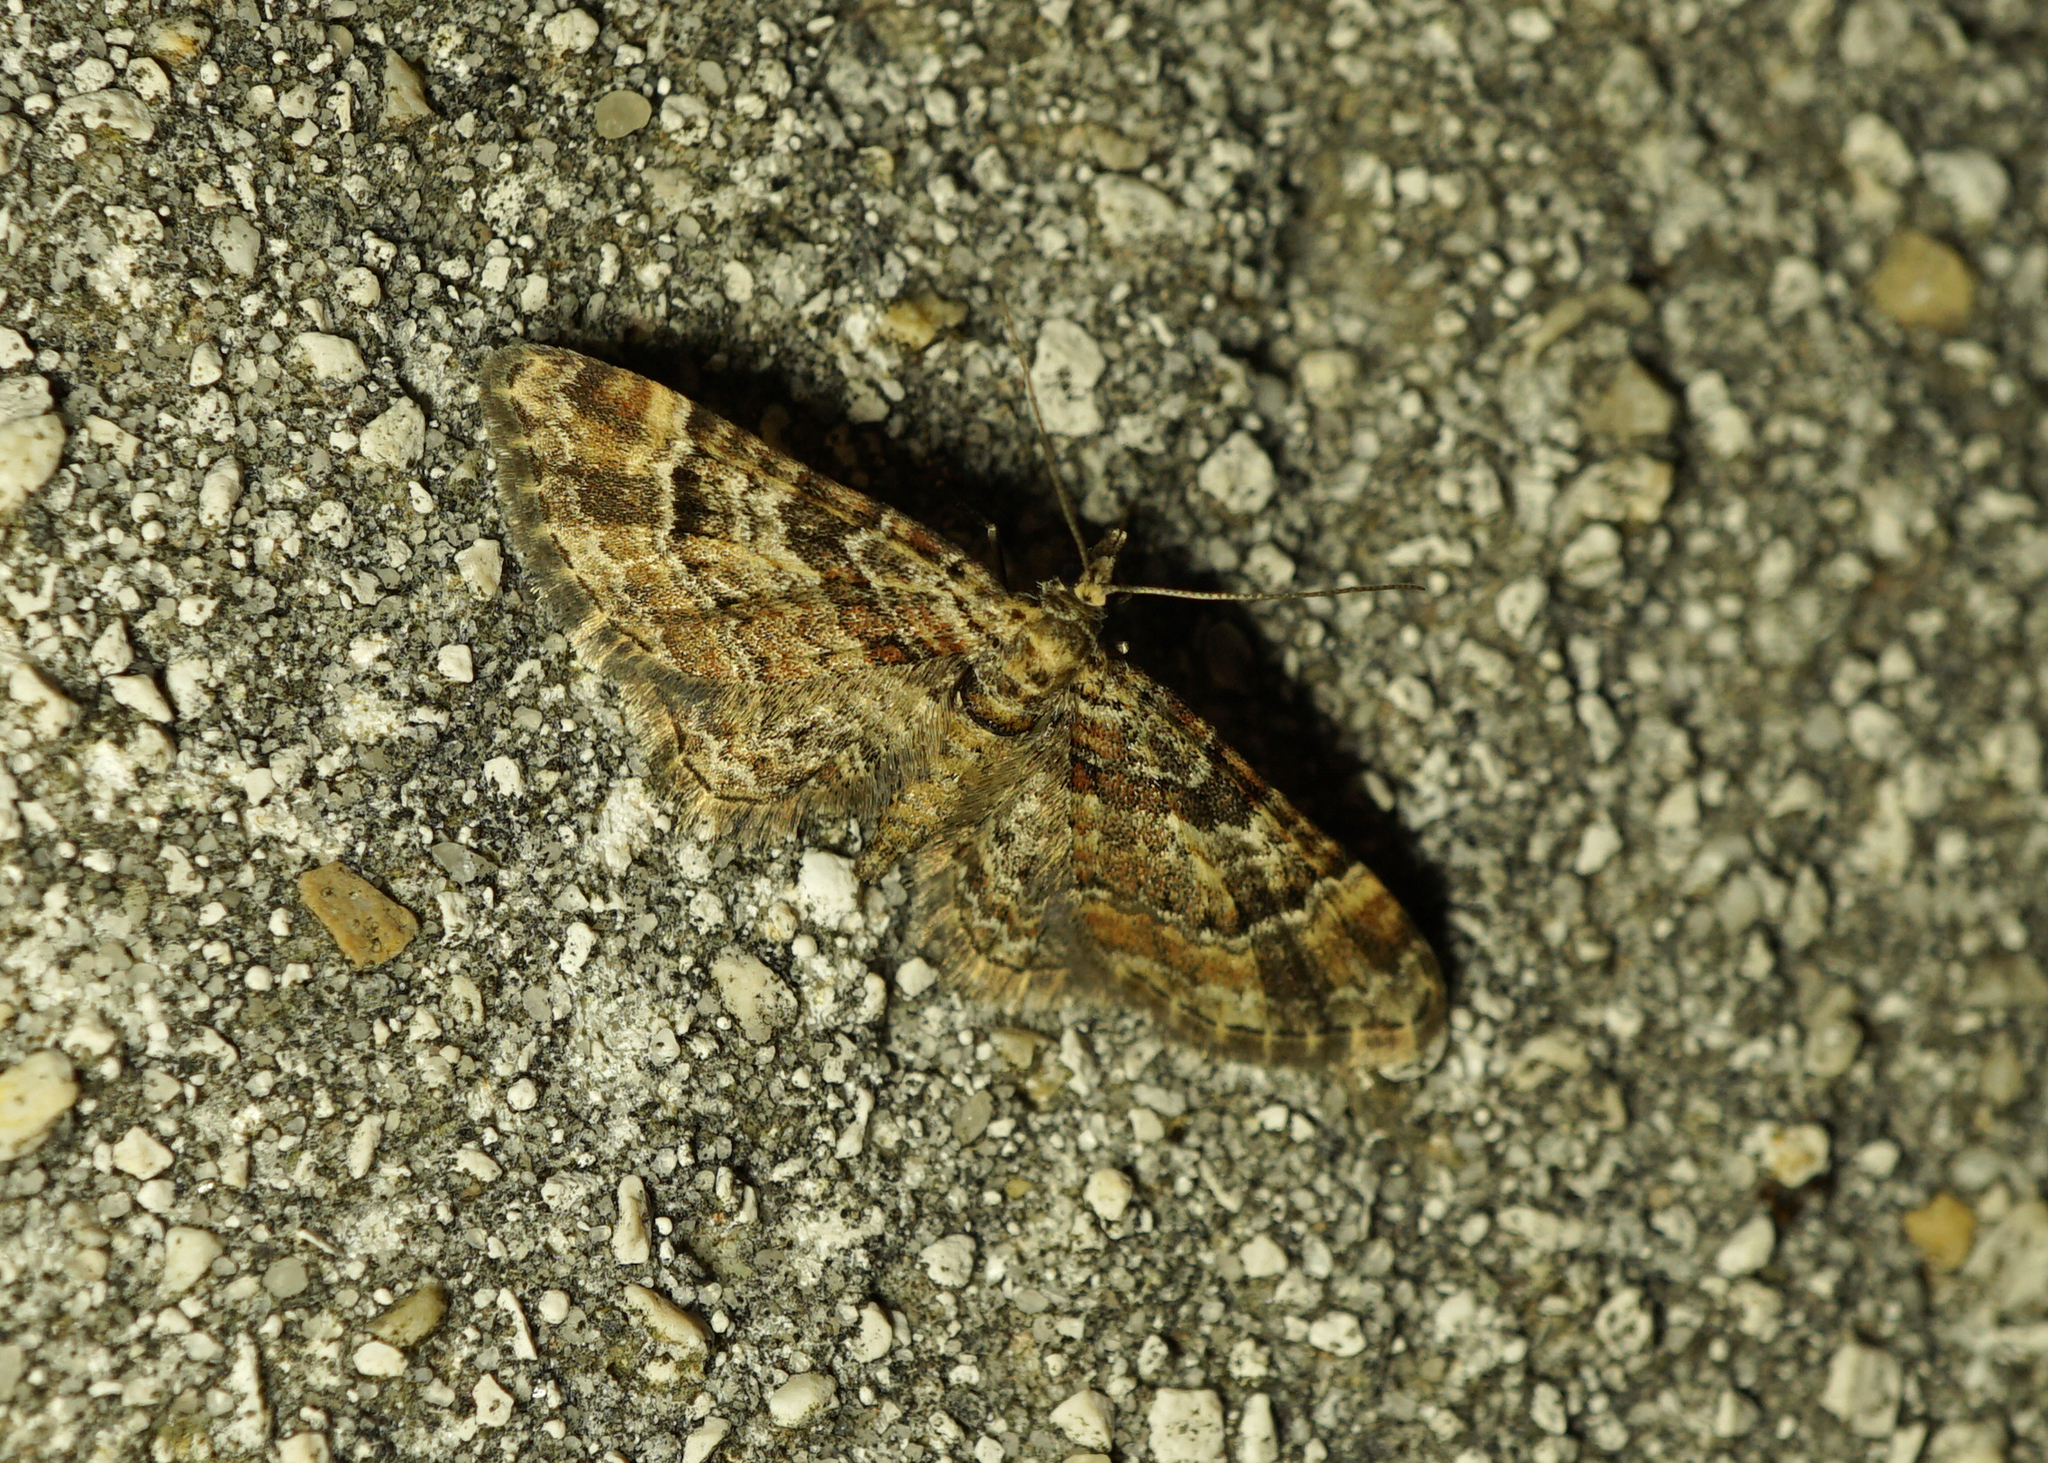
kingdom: Animalia
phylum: Arthropoda
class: Insecta
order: Lepidoptera
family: Geometridae
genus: Gymnoscelis
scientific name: Gymnoscelis rufifasciata
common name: Double-striped pug
